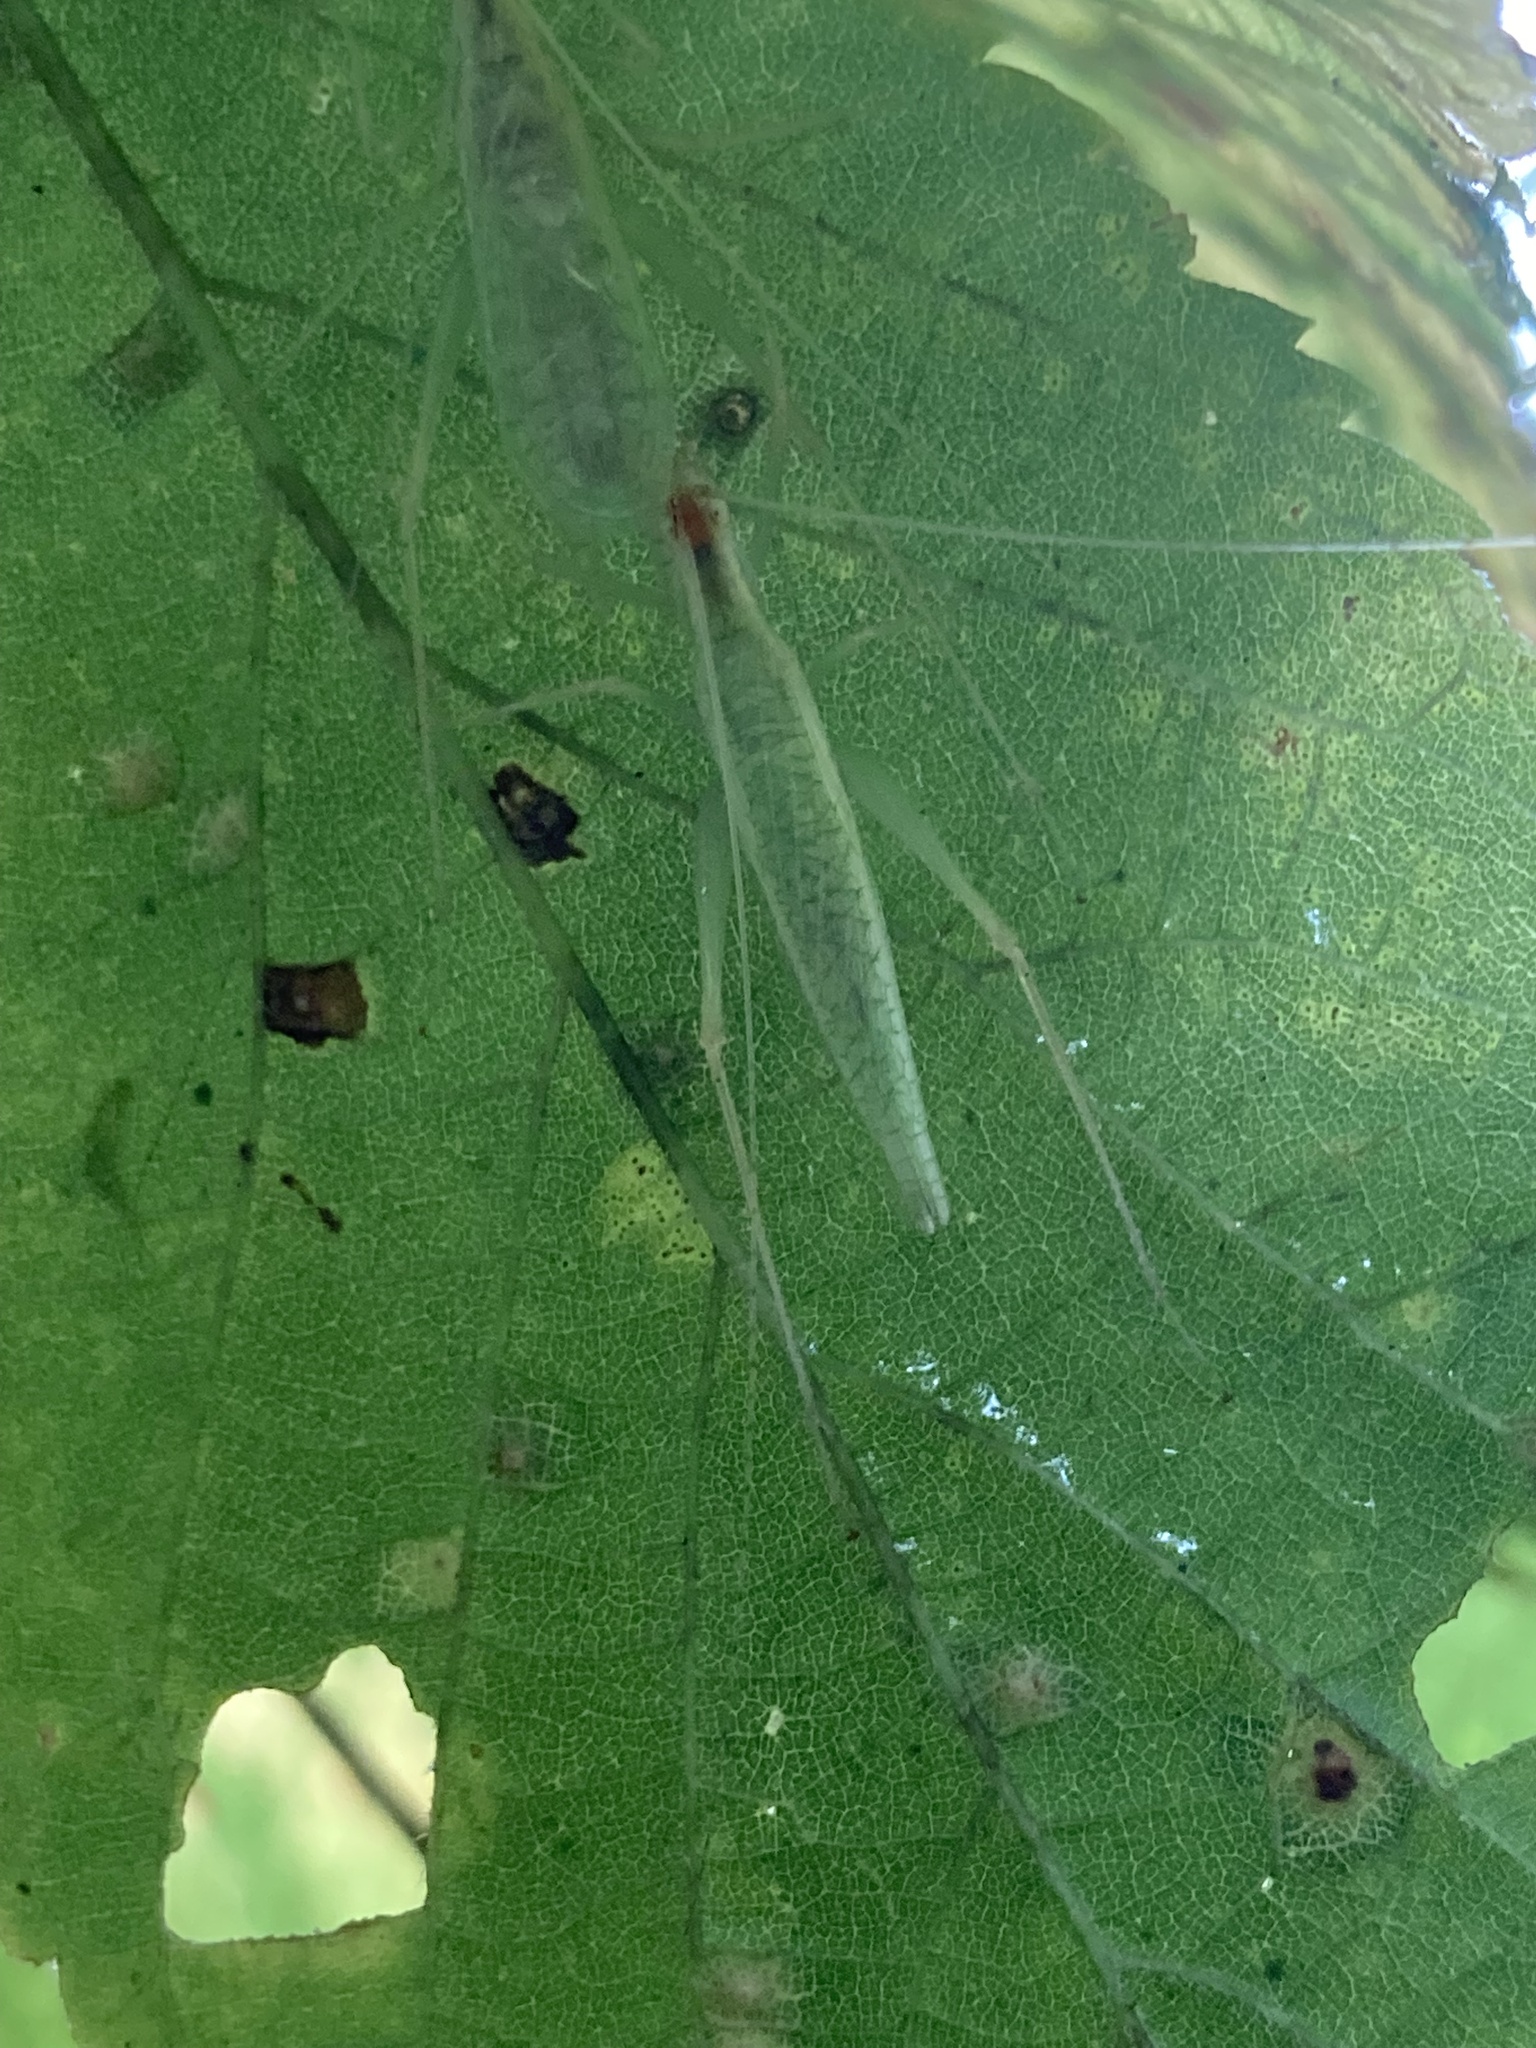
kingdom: Animalia
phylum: Arthropoda
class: Insecta
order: Orthoptera
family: Gryllidae
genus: Oecanthus
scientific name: Oecanthus niveus
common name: Narrow-winged tree cricket
